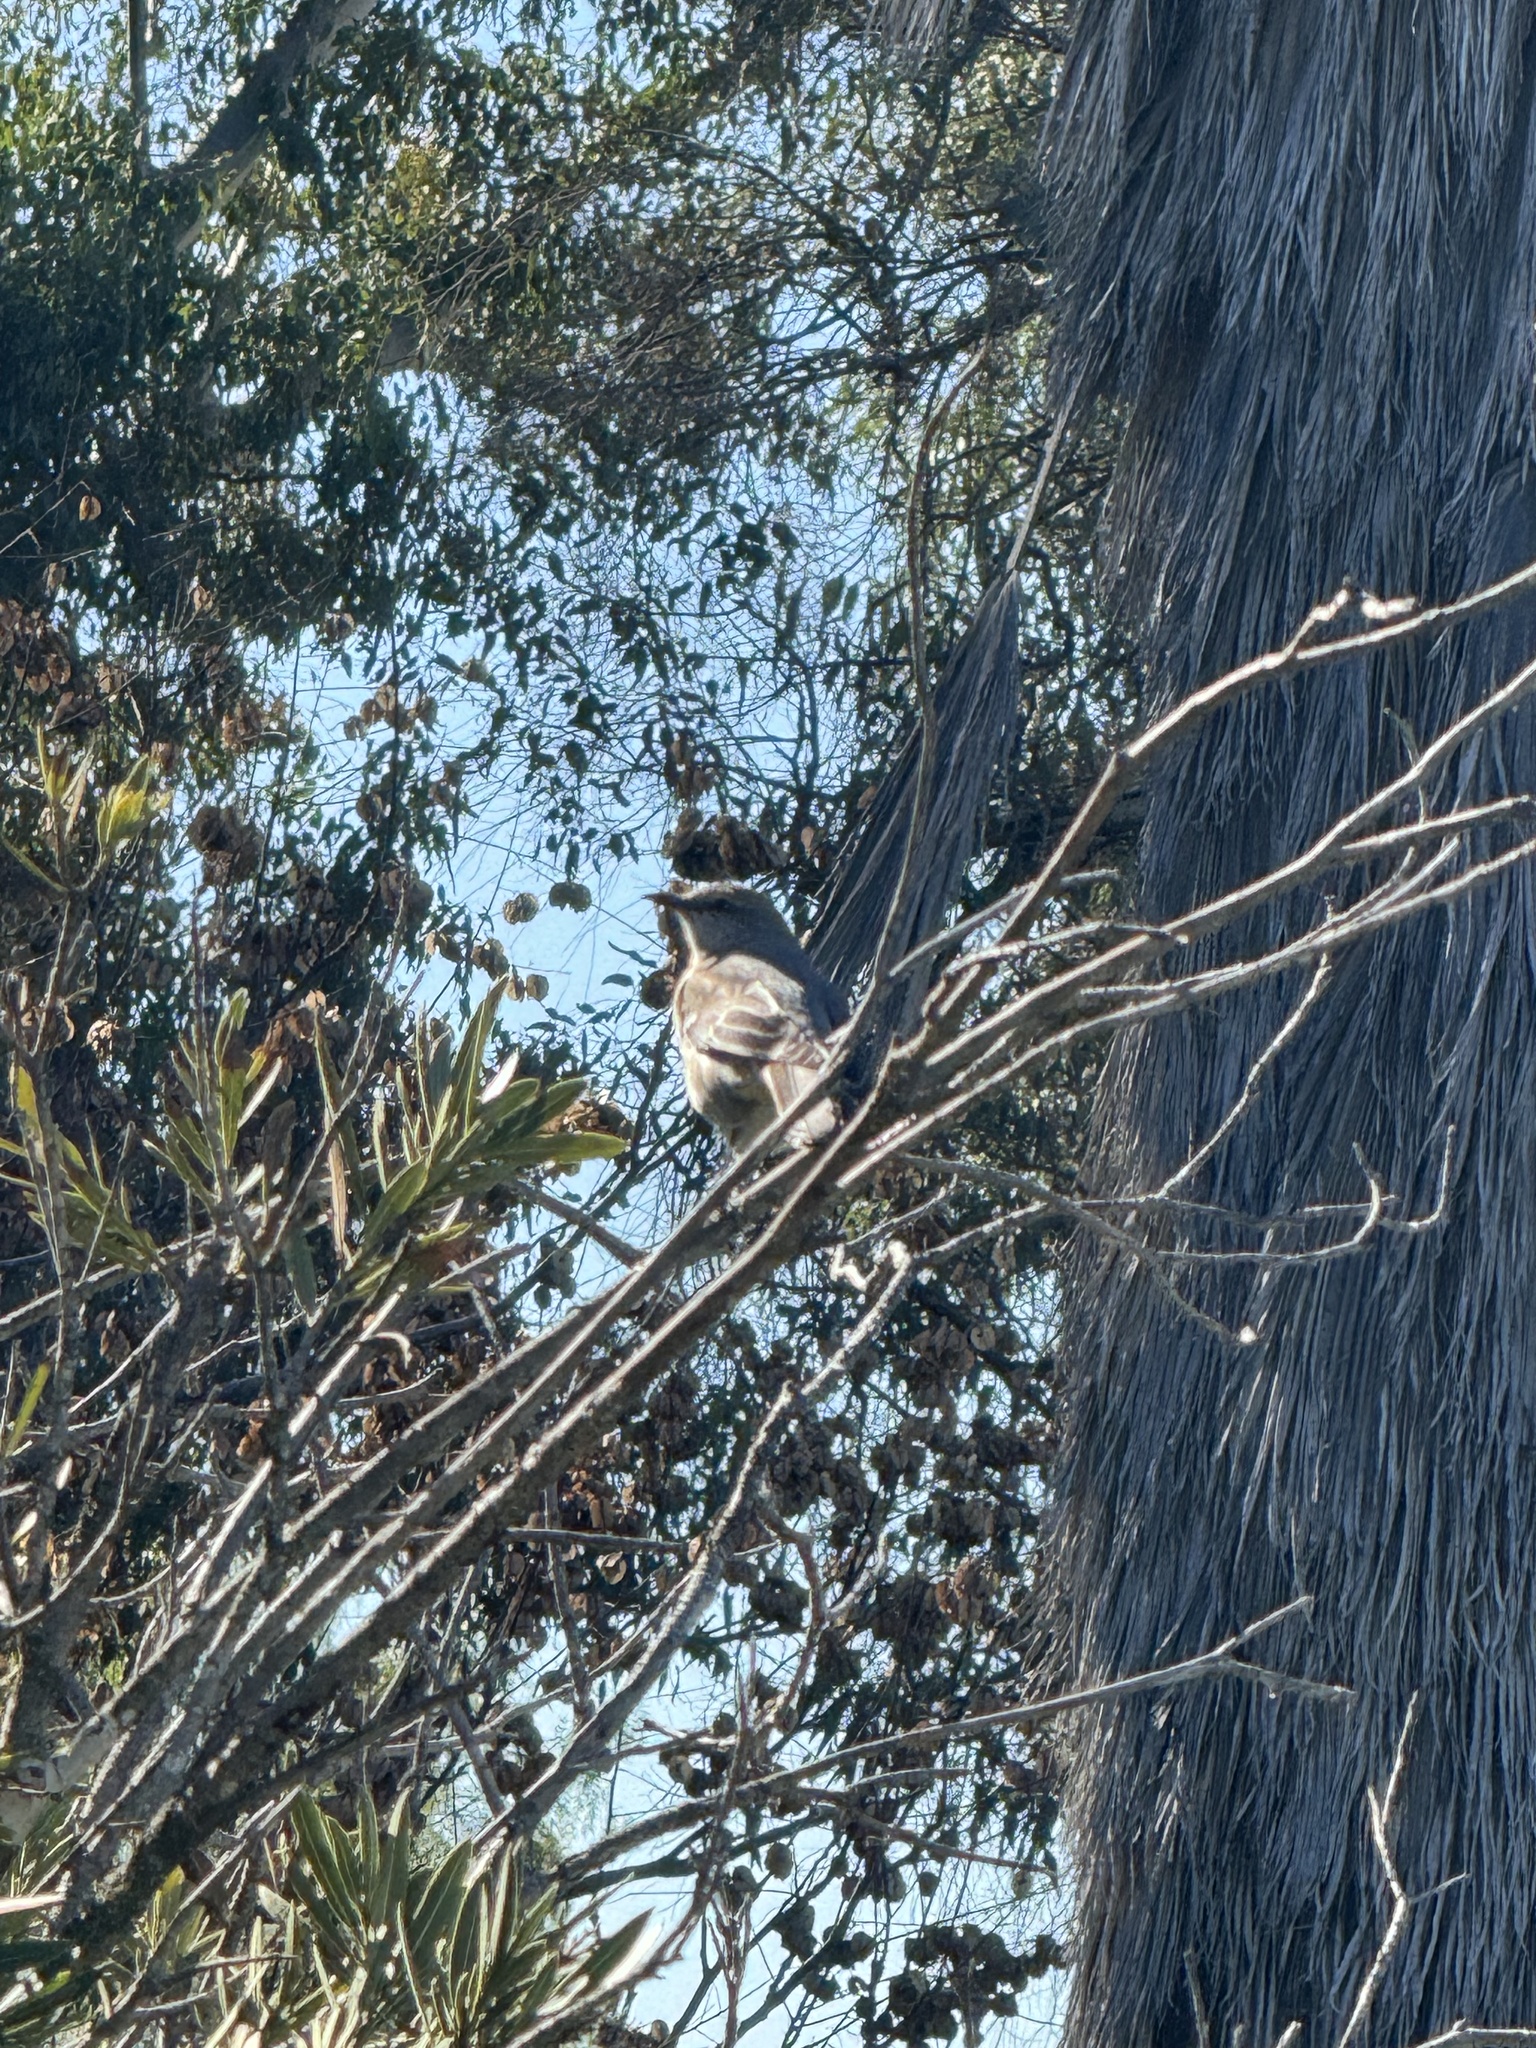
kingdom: Animalia
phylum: Chordata
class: Aves
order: Passeriformes
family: Mimidae
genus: Mimus
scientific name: Mimus polyglottos
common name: Northern mockingbird
